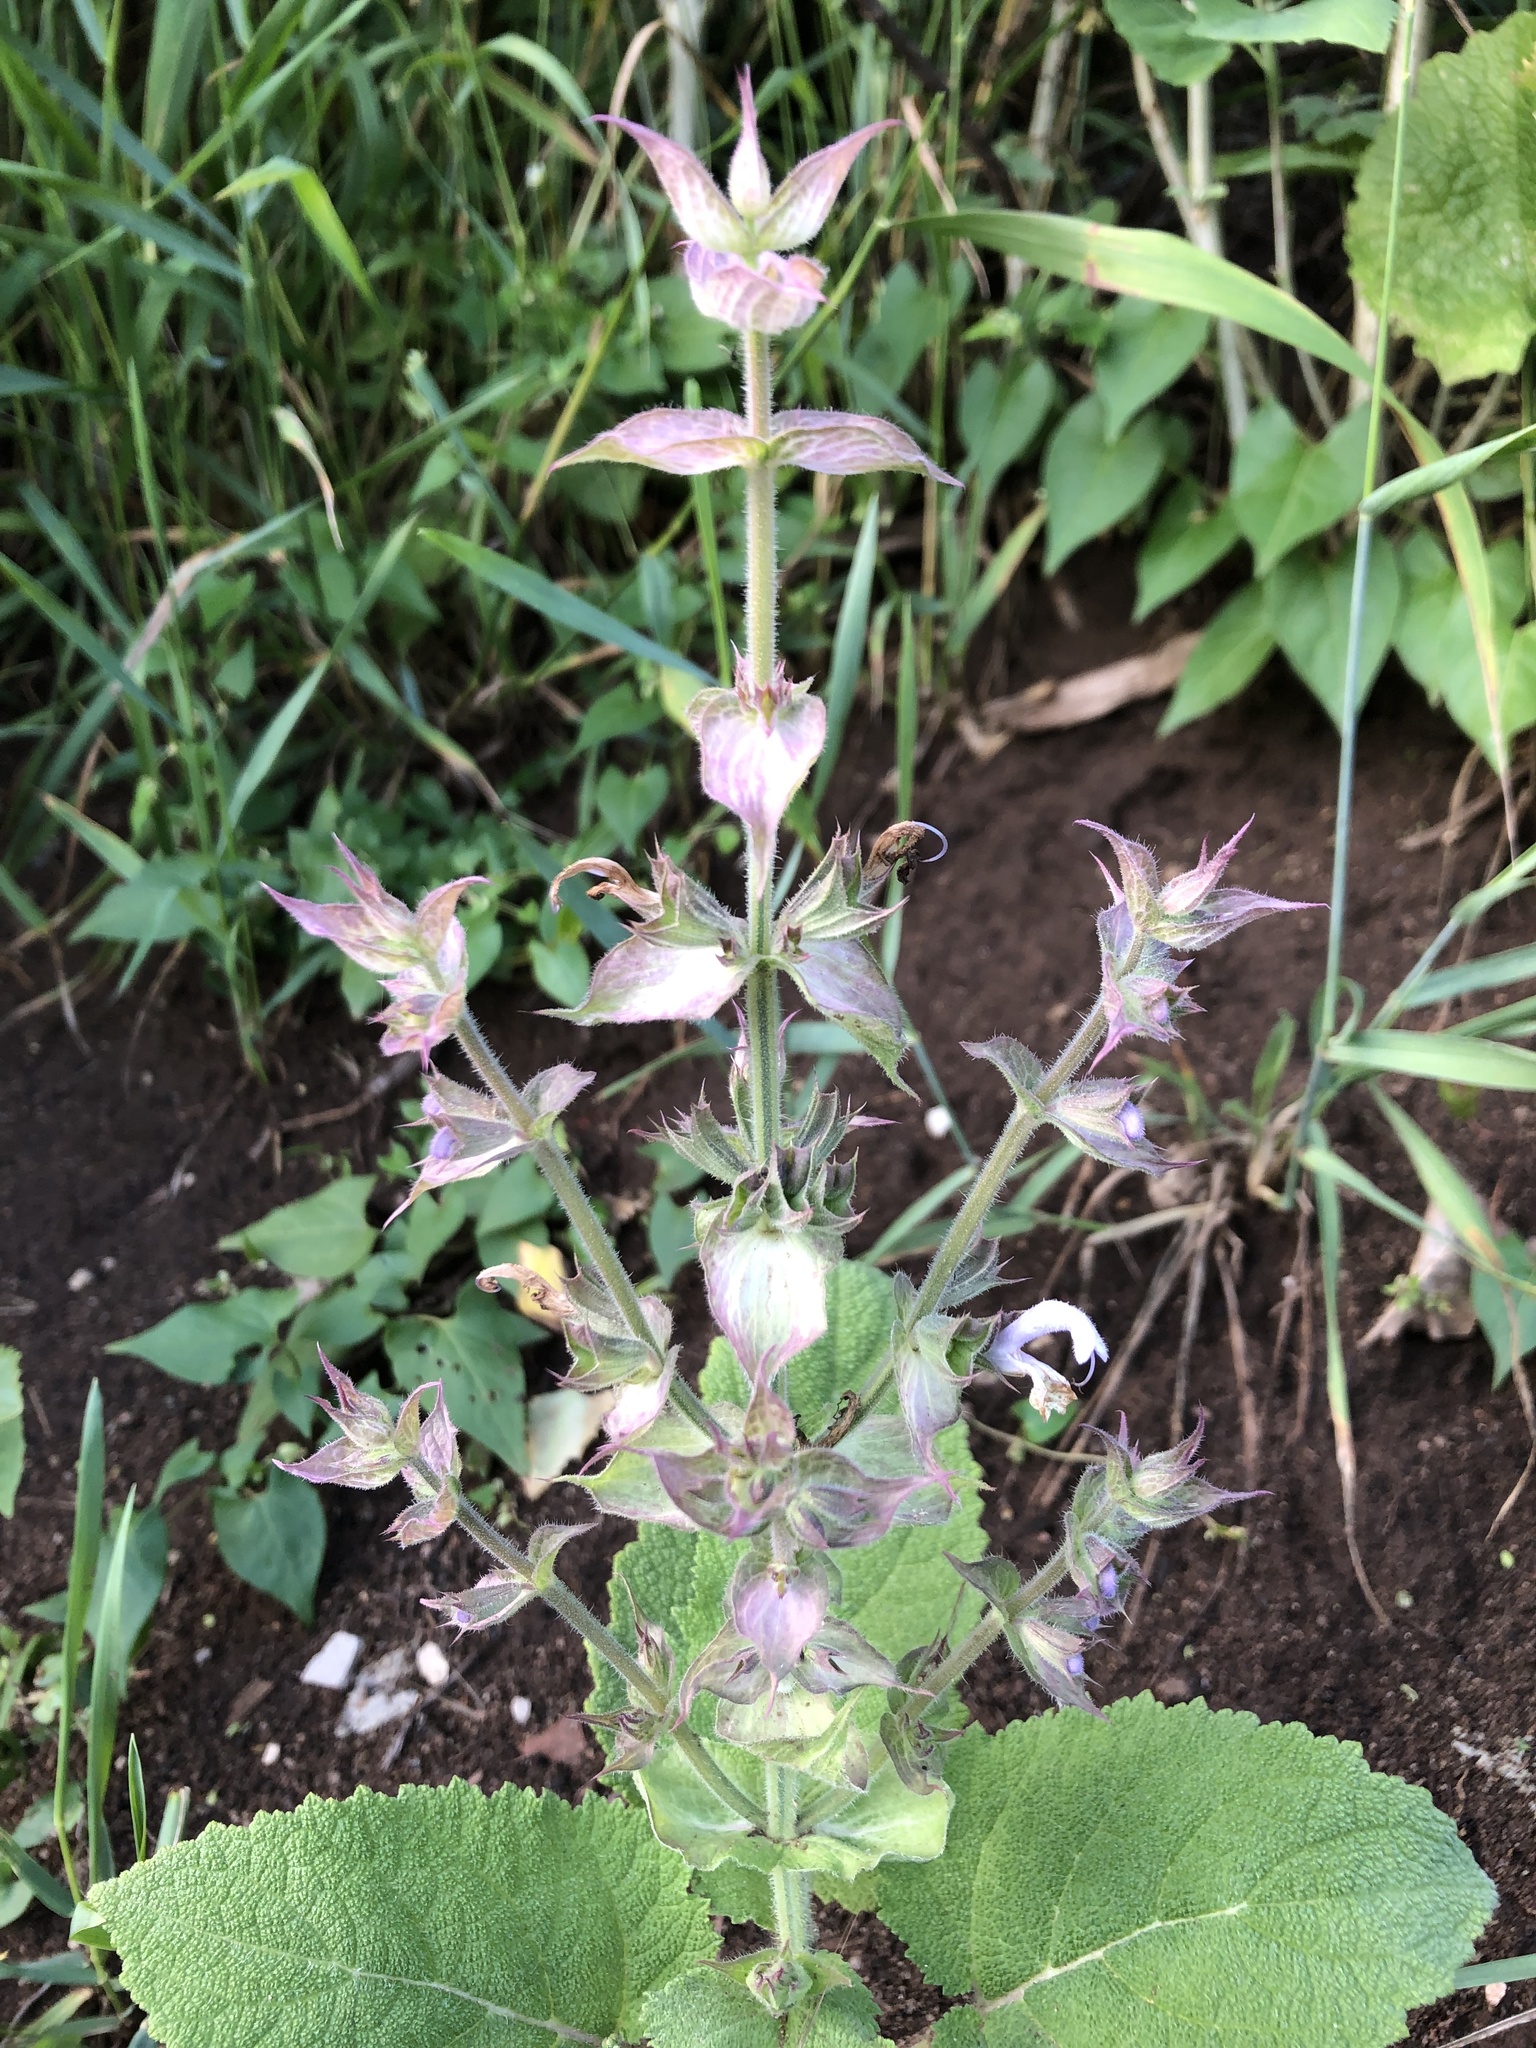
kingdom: Plantae
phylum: Tracheophyta
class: Magnoliopsida
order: Lamiales
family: Lamiaceae
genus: Salvia
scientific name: Salvia sclarea
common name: Clary
